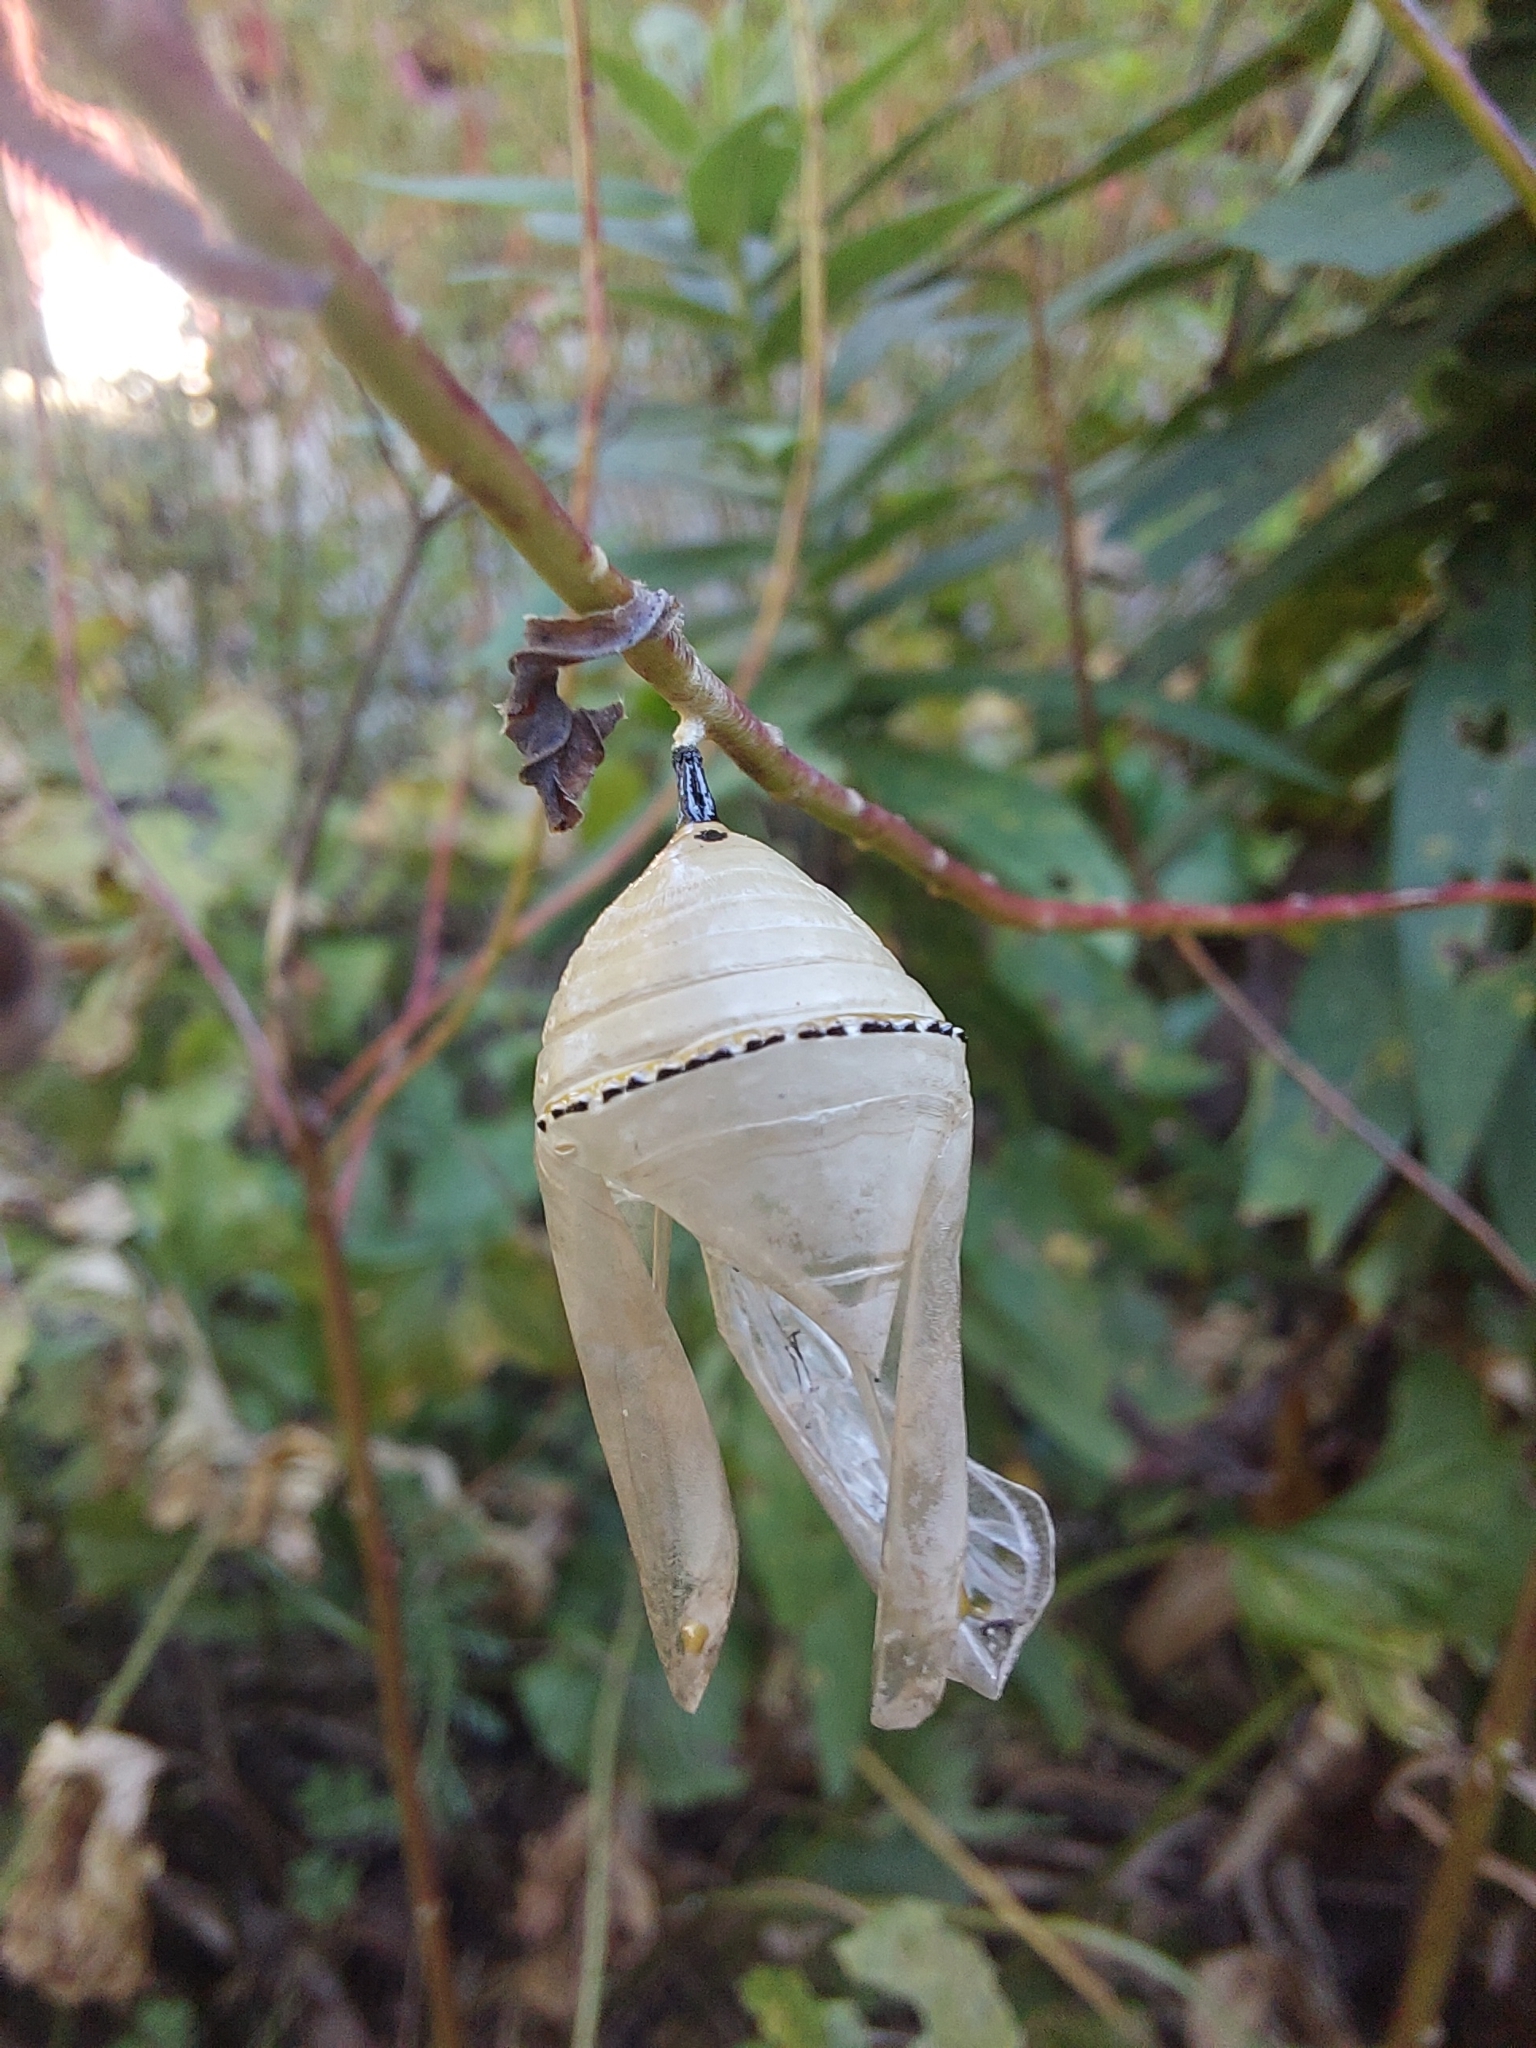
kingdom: Animalia
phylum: Arthropoda
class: Insecta
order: Lepidoptera
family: Nymphalidae
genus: Danaus
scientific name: Danaus plexippus
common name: Monarch
